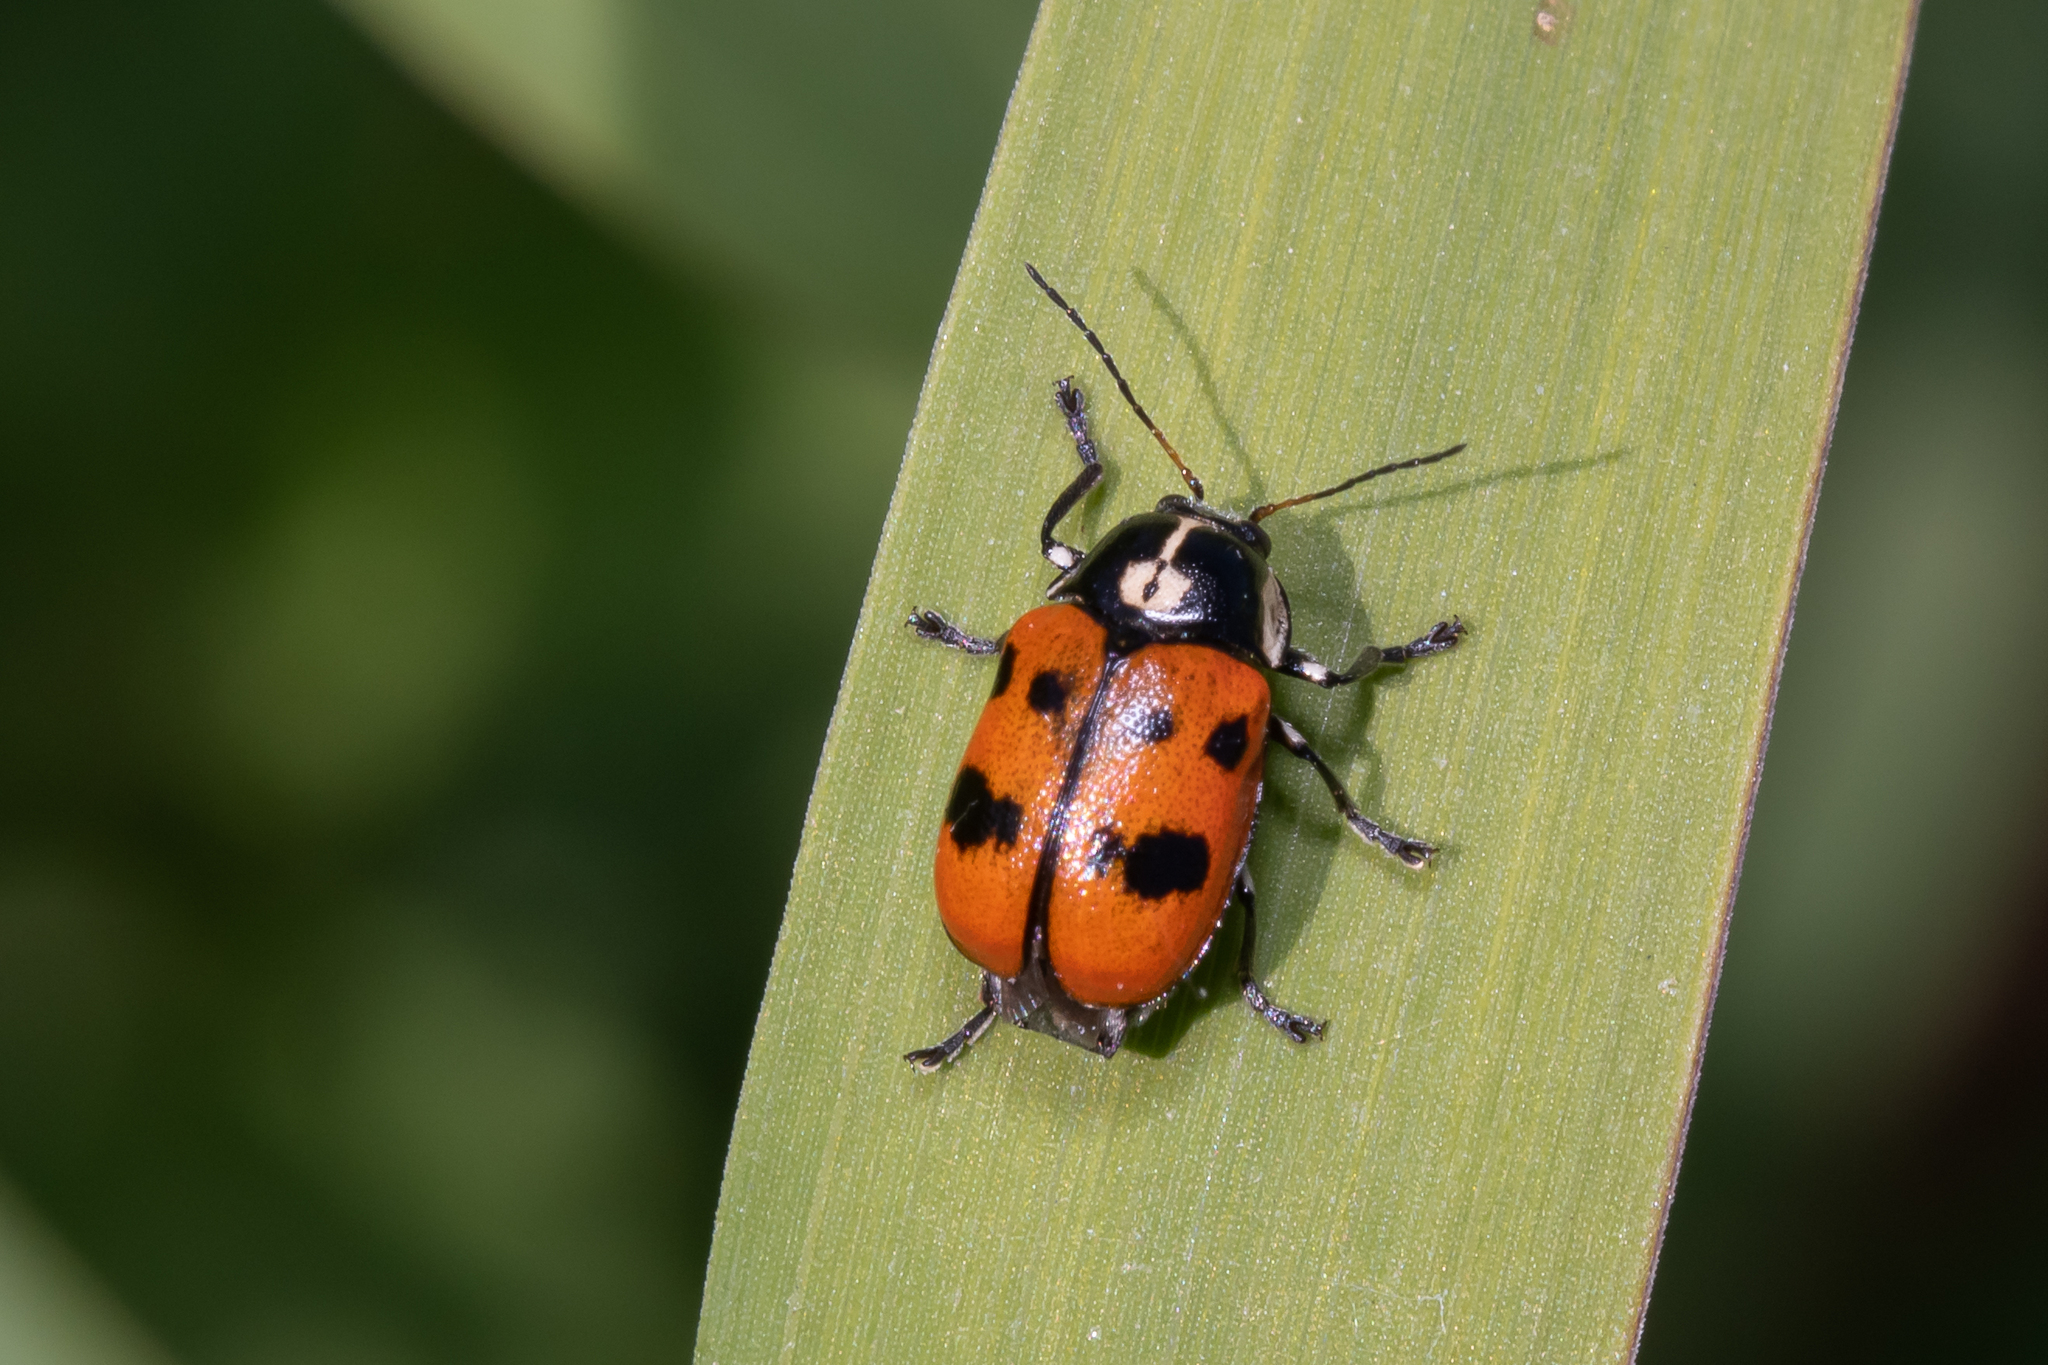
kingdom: Animalia
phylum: Arthropoda
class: Insecta
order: Coleoptera
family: Chrysomelidae
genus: Cryptocephalus
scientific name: Cryptocephalus octopunctatus
